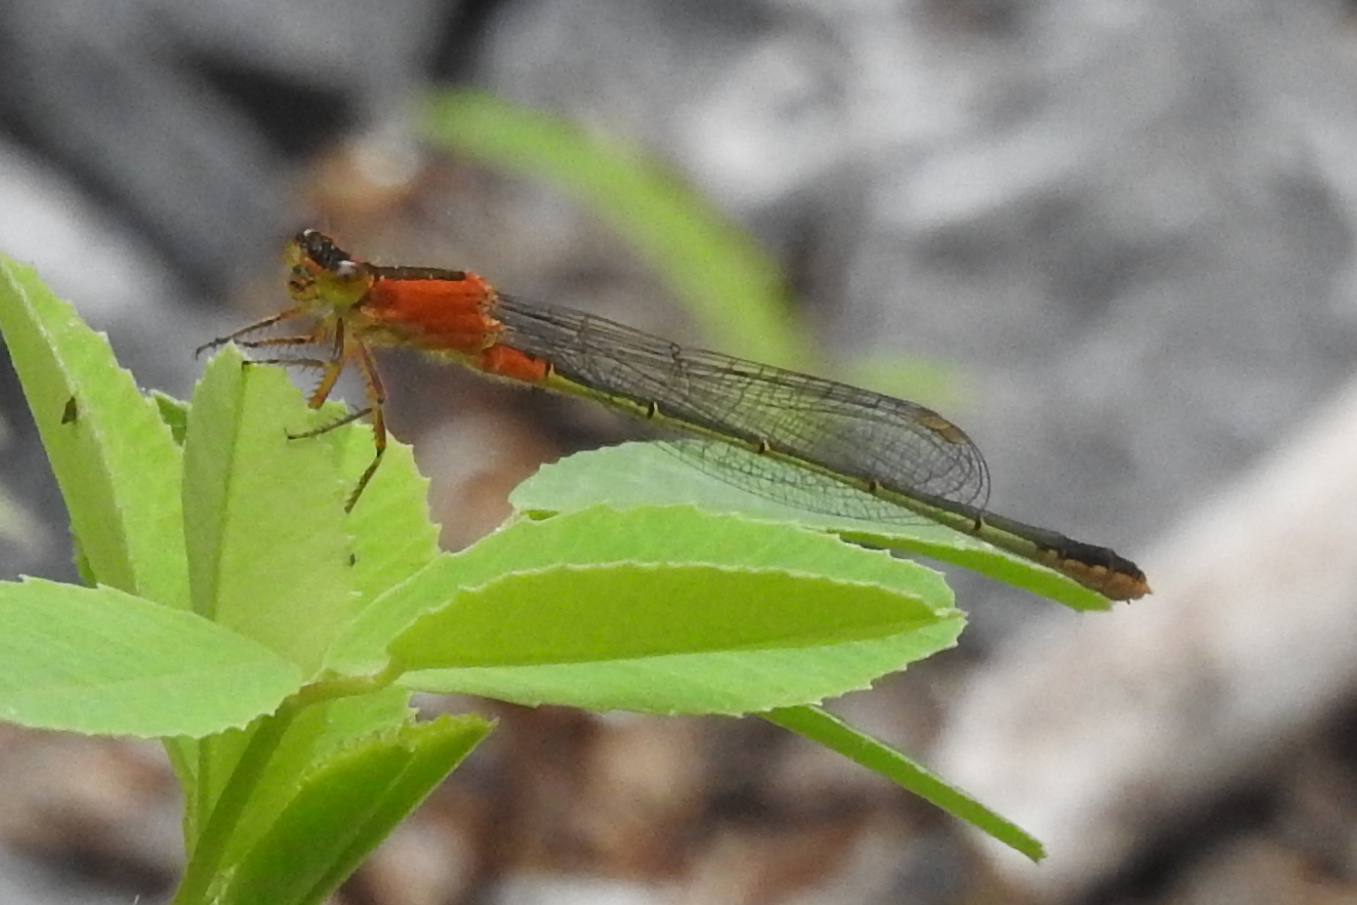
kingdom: Animalia
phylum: Arthropoda
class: Insecta
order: Odonata
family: Coenagrionidae
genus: Ischnura
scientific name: Ischnura ramburii
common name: Rambur's forktail
